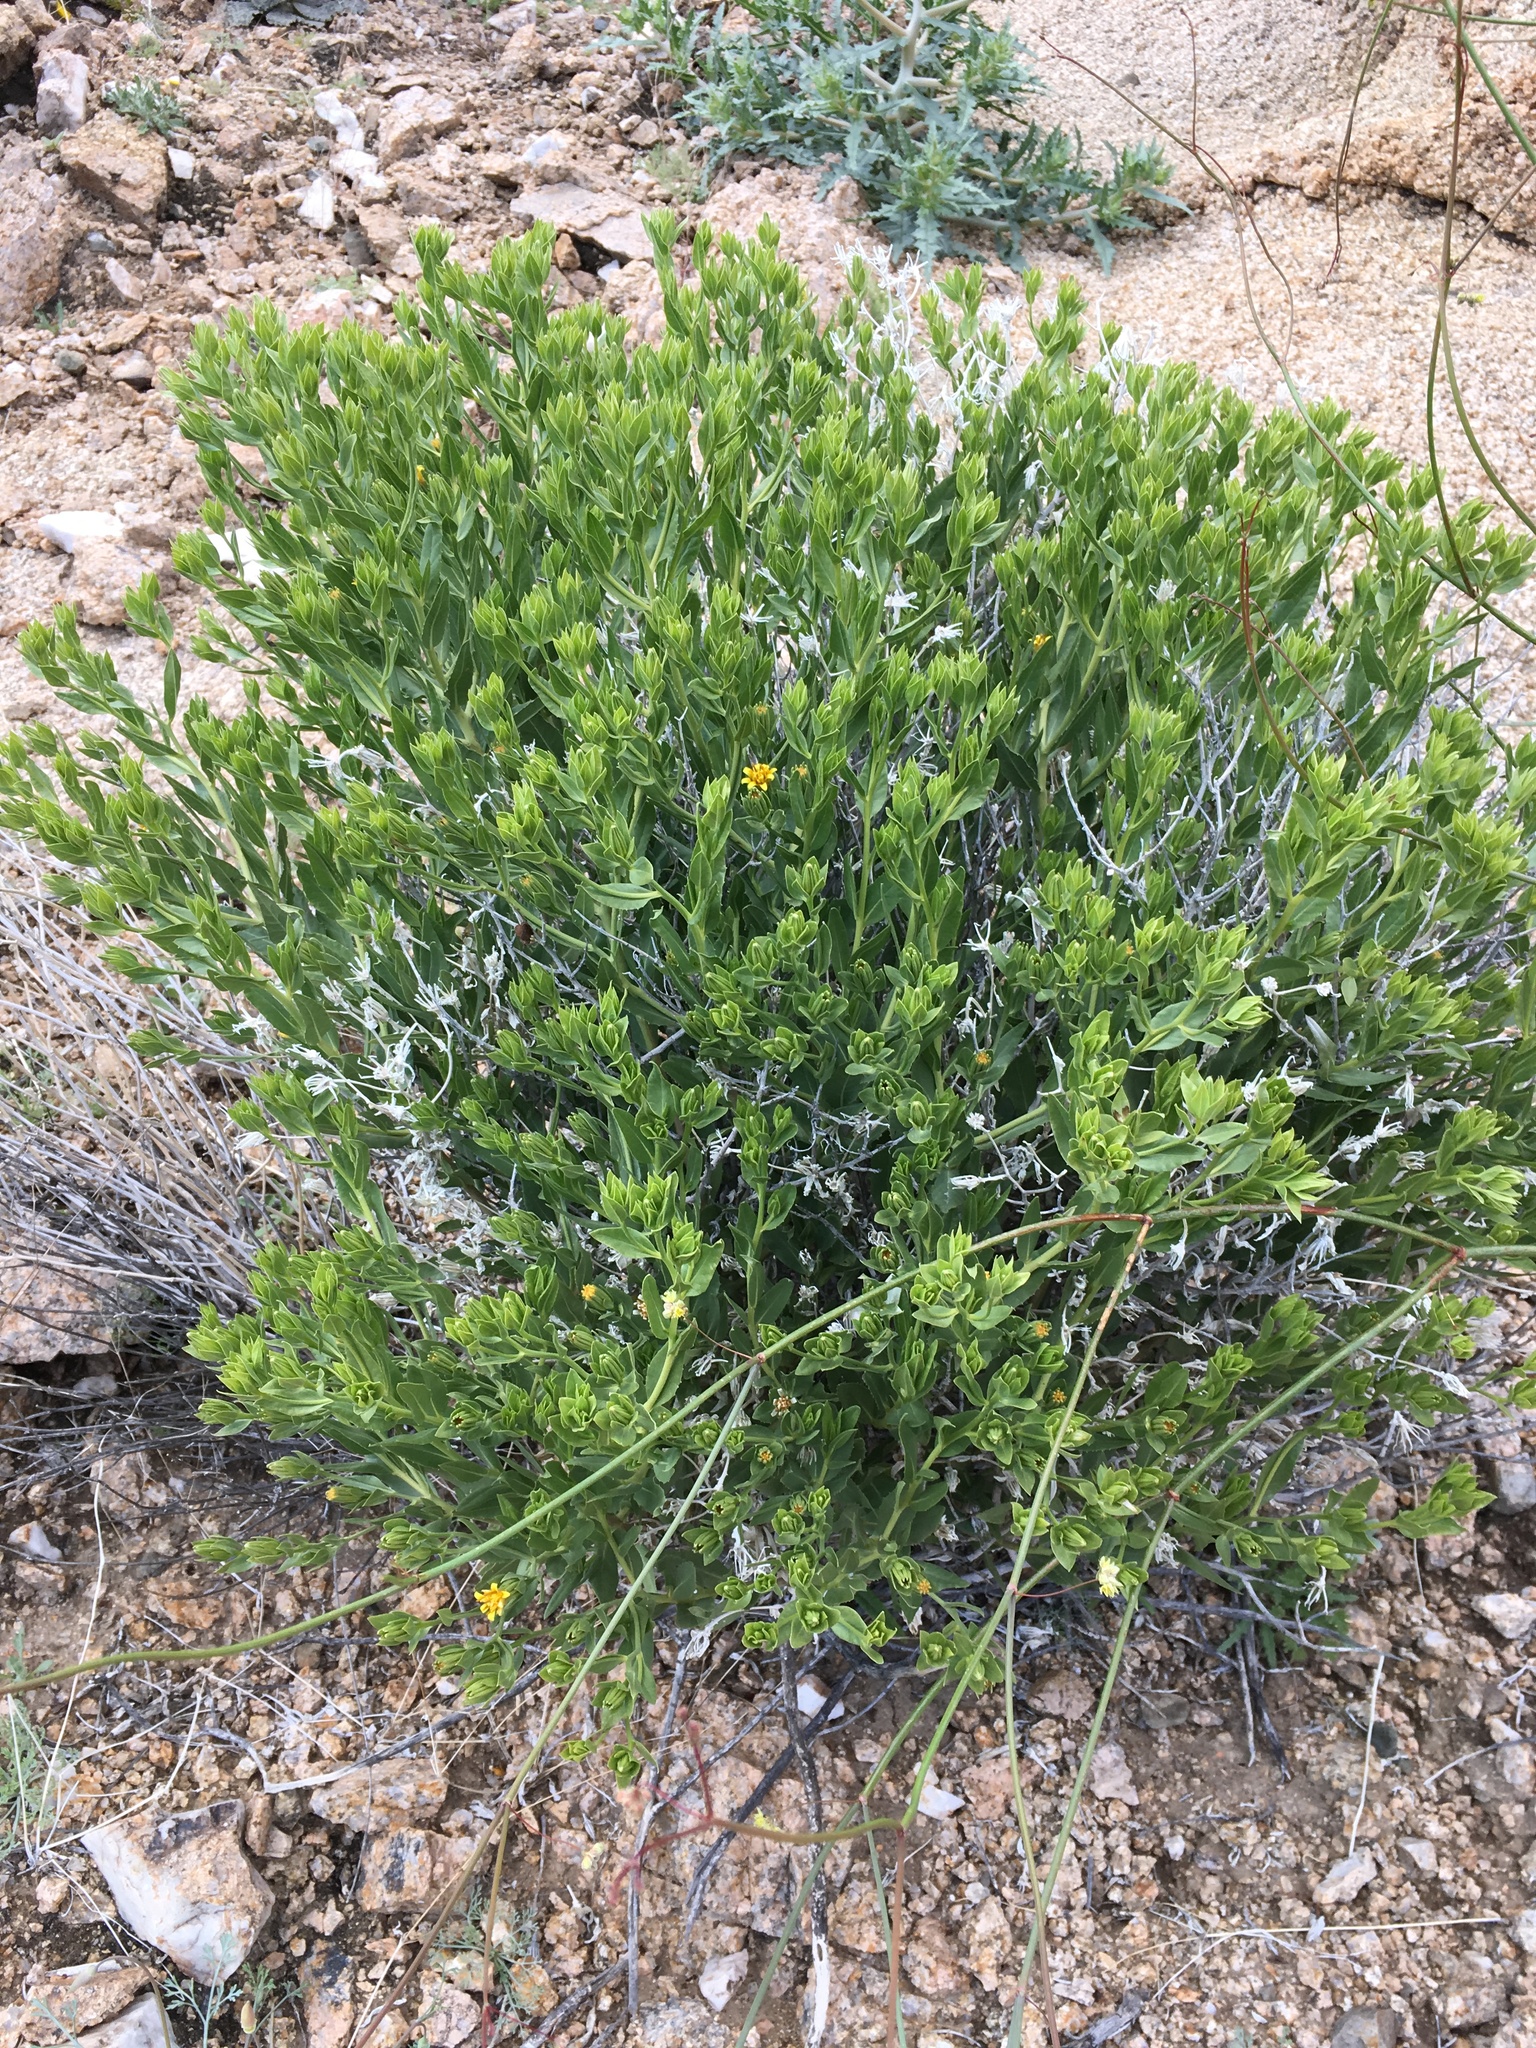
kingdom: Plantae
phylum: Tracheophyta
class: Magnoliopsida
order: Asterales
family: Asteraceae
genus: Trixis
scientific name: Trixis californica
